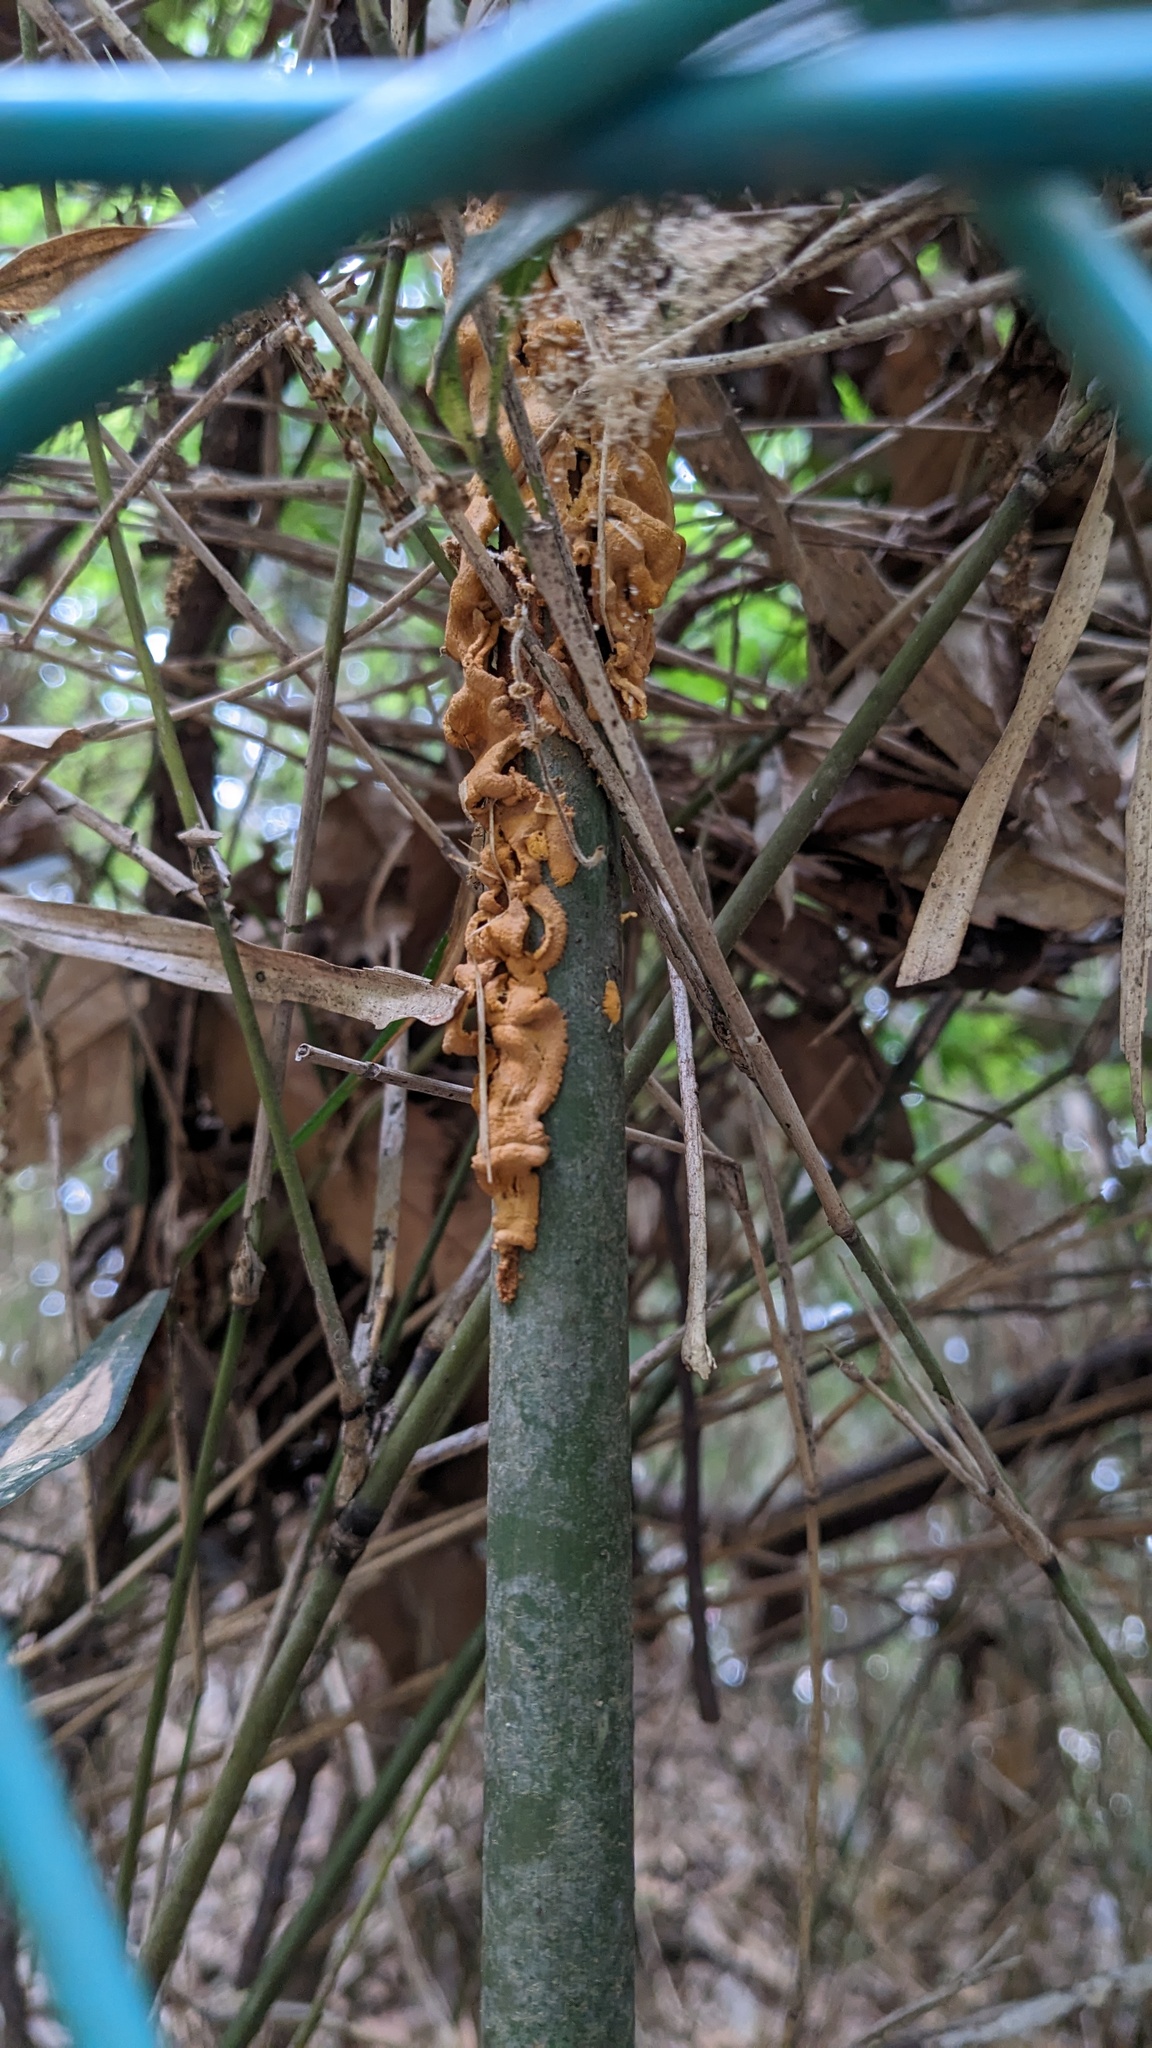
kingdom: Fungi
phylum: Basidiomycota
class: Pucciniomycetes
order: Pucciniales
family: Pucciniaceae
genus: Stereostratum
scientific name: Stereostratum corticioides
